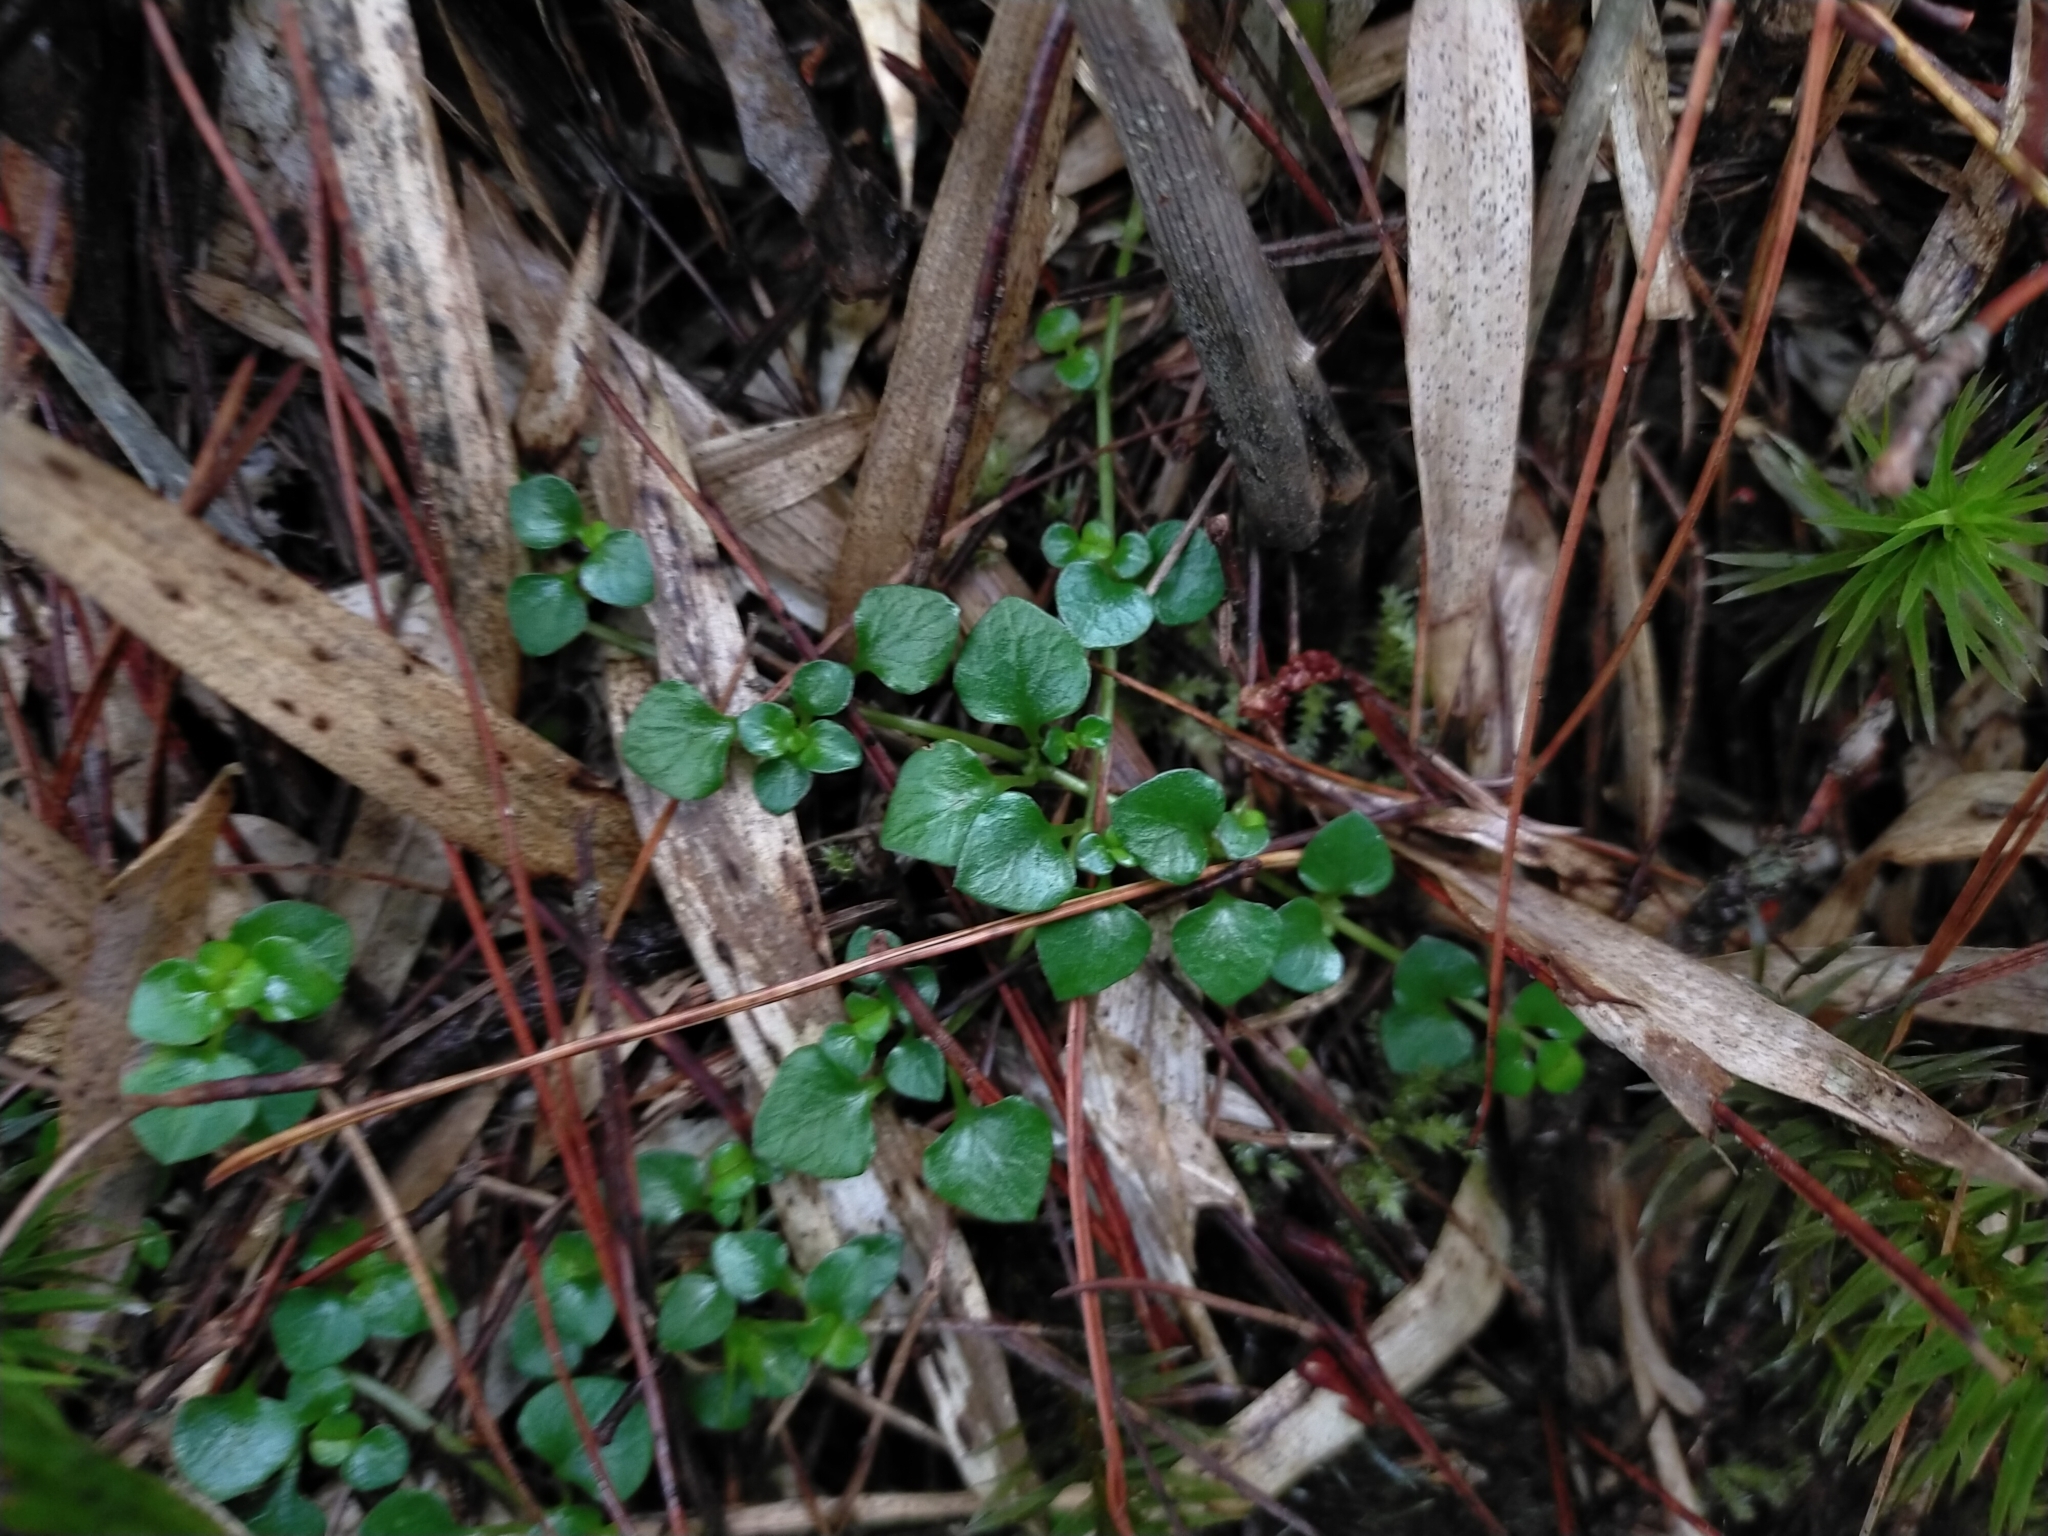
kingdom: Plantae
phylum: Tracheophyta
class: Magnoliopsida
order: Gentianales
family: Rubiaceae
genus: Nertera
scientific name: Nertera nigricarpa
